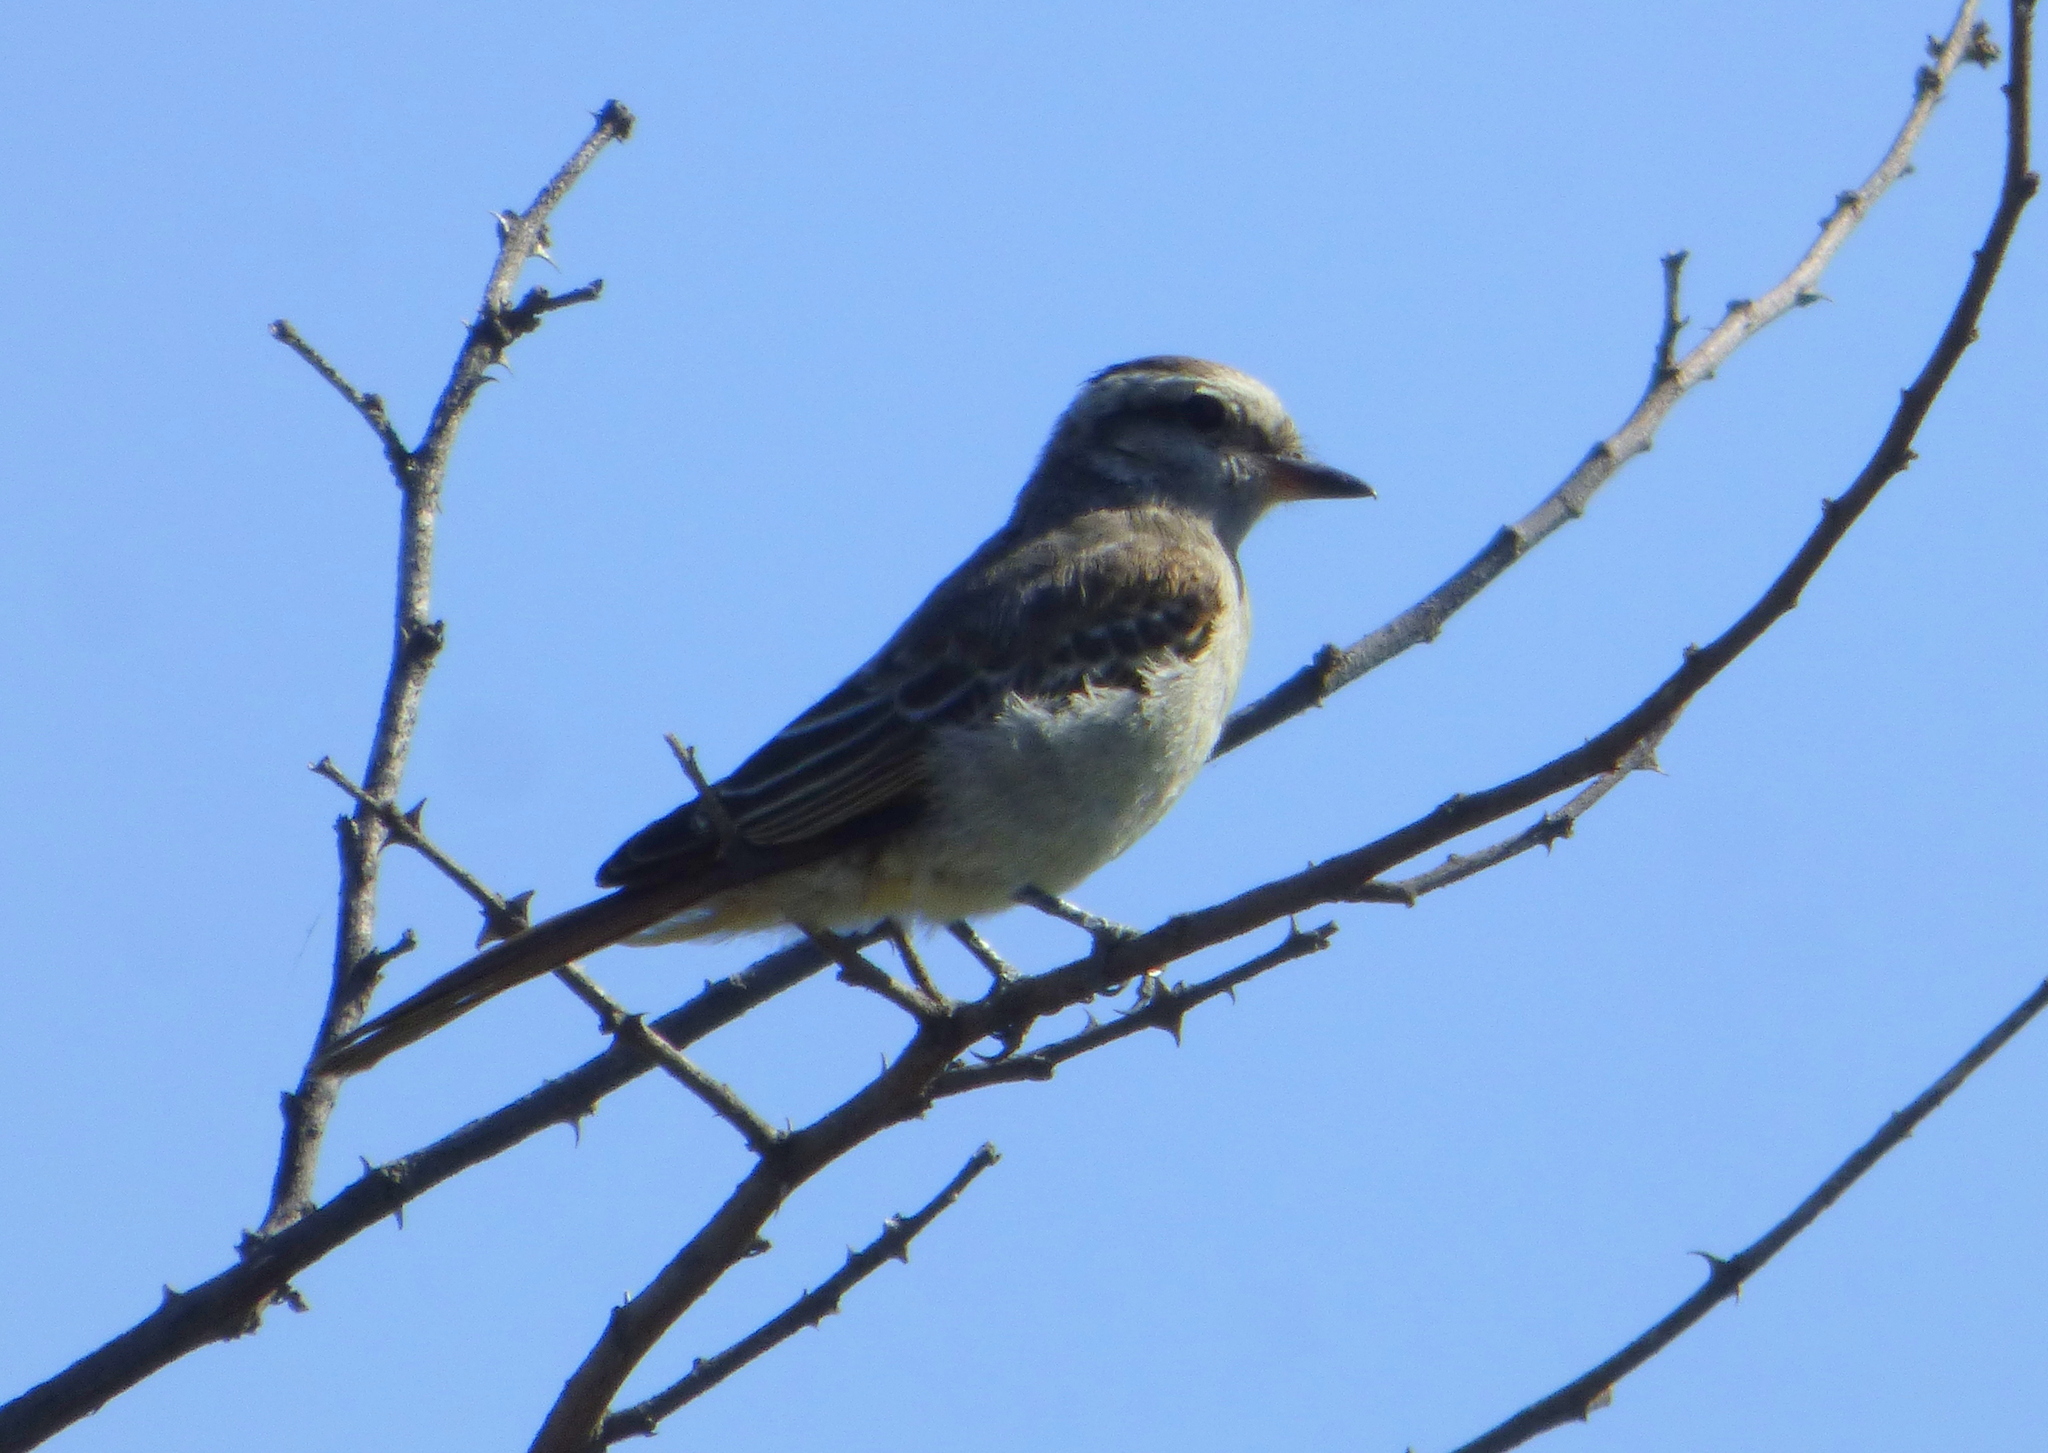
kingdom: Animalia
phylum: Chordata
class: Aves
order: Passeriformes
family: Tyrannidae
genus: Empidonomus
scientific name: Empidonomus aurantioatrocristatus
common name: Crowned slaty flycatcher
